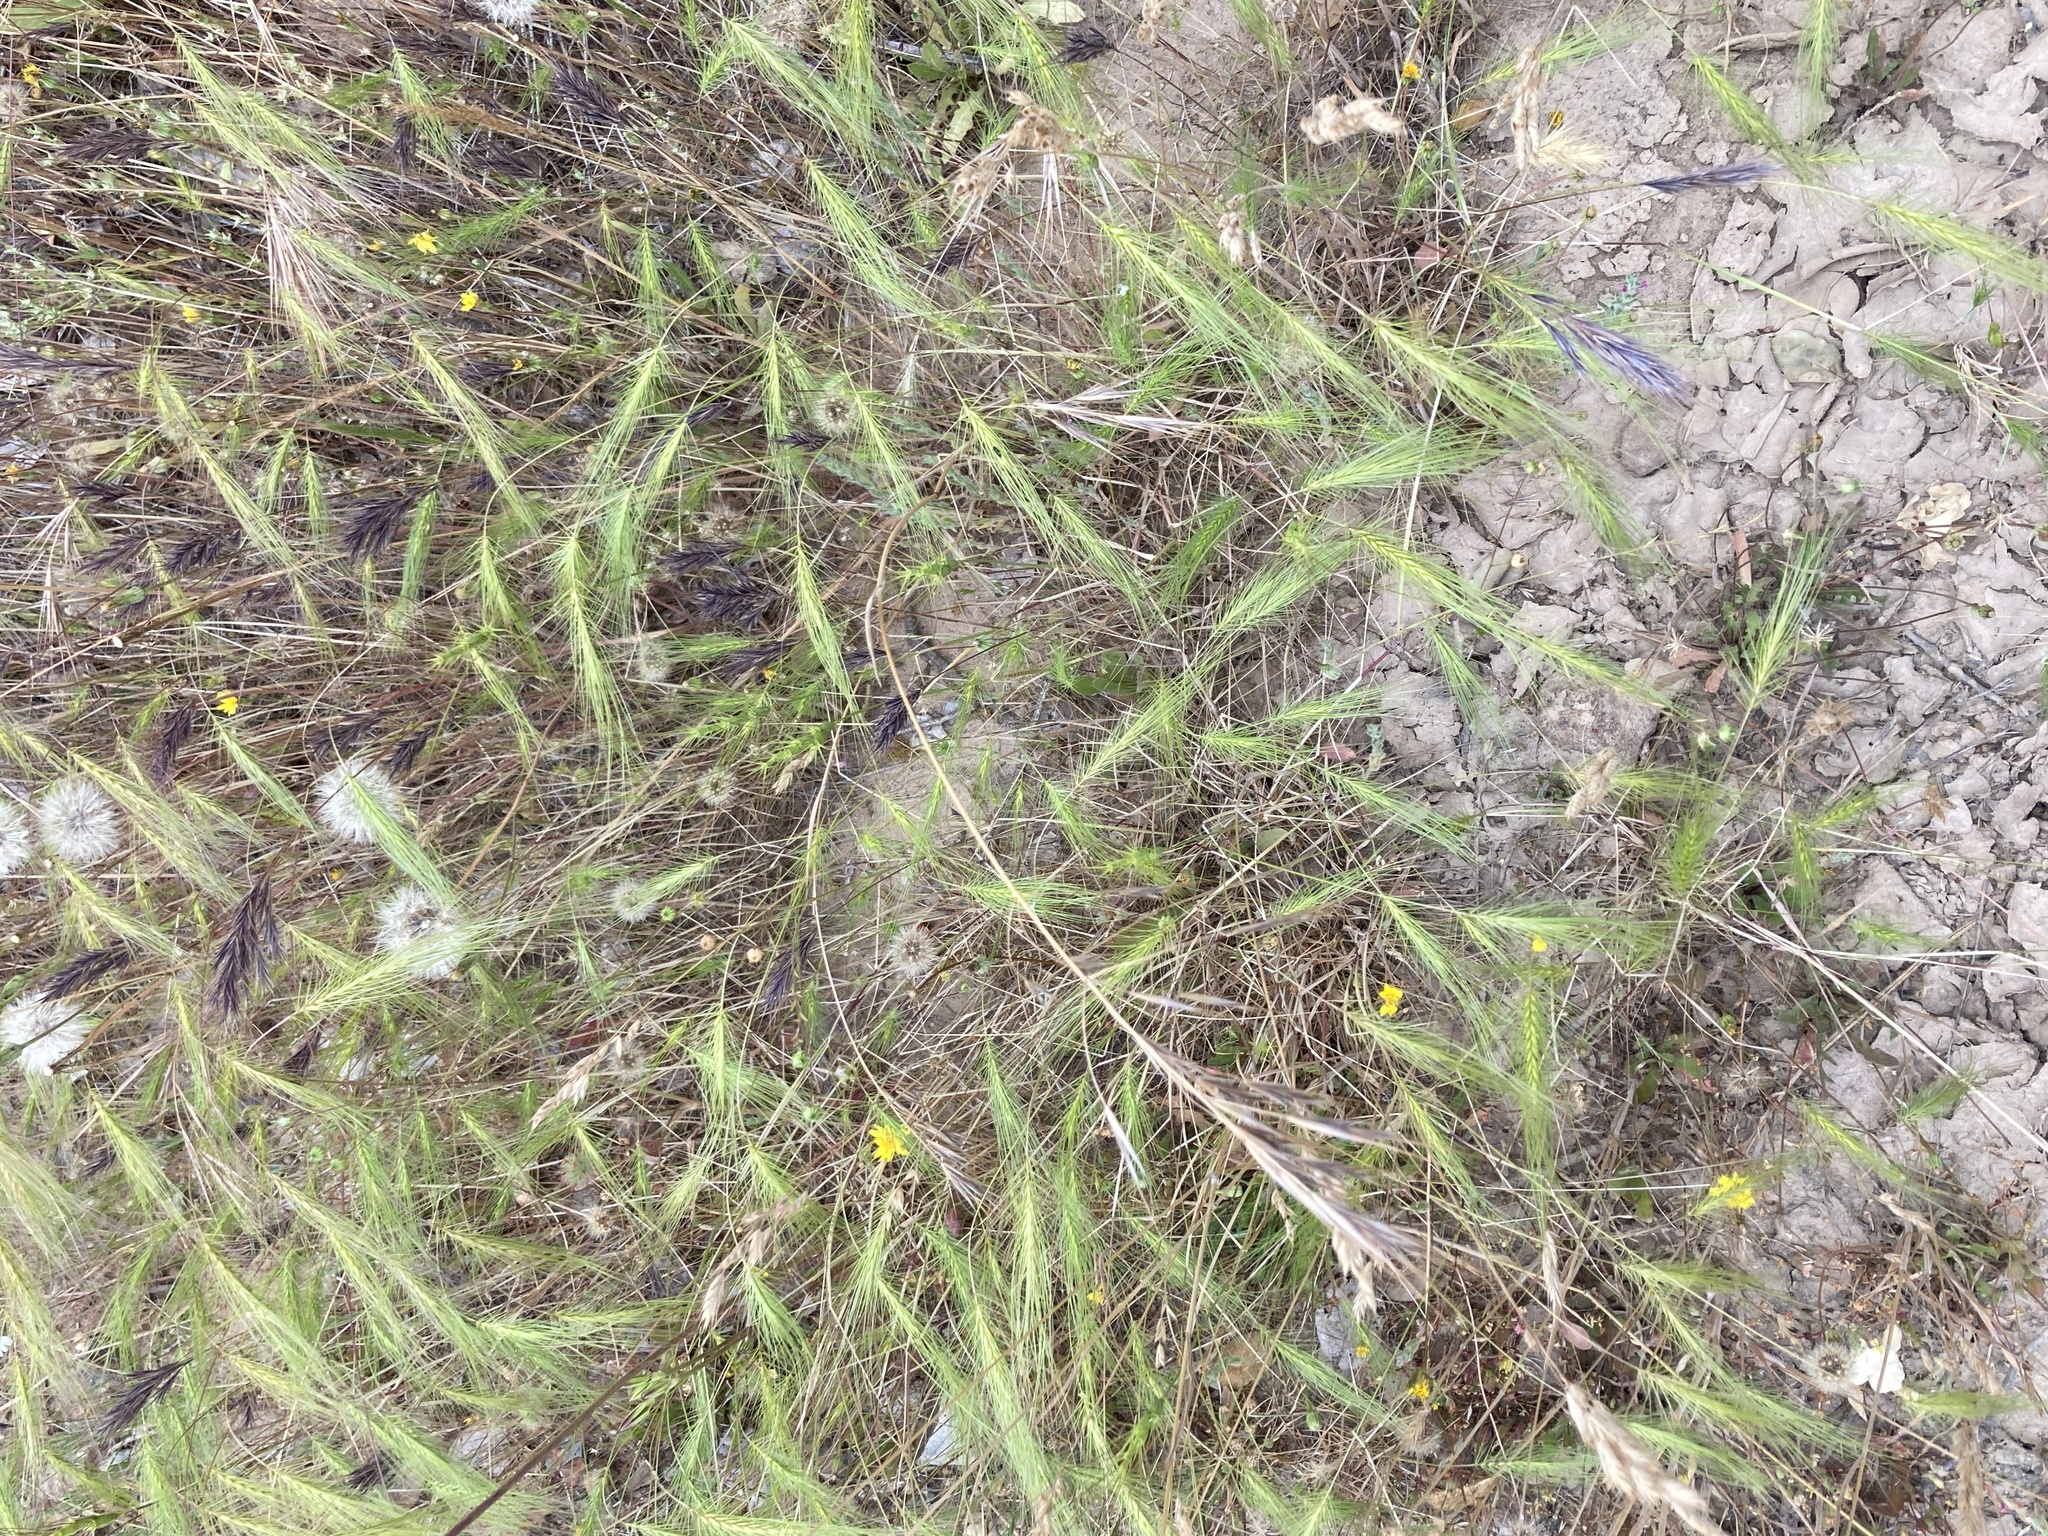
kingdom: Plantae
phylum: Tracheophyta
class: Liliopsida
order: Poales
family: Poaceae
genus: Taeniatherum
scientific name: Taeniatherum caput-medusae
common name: Medusahead
